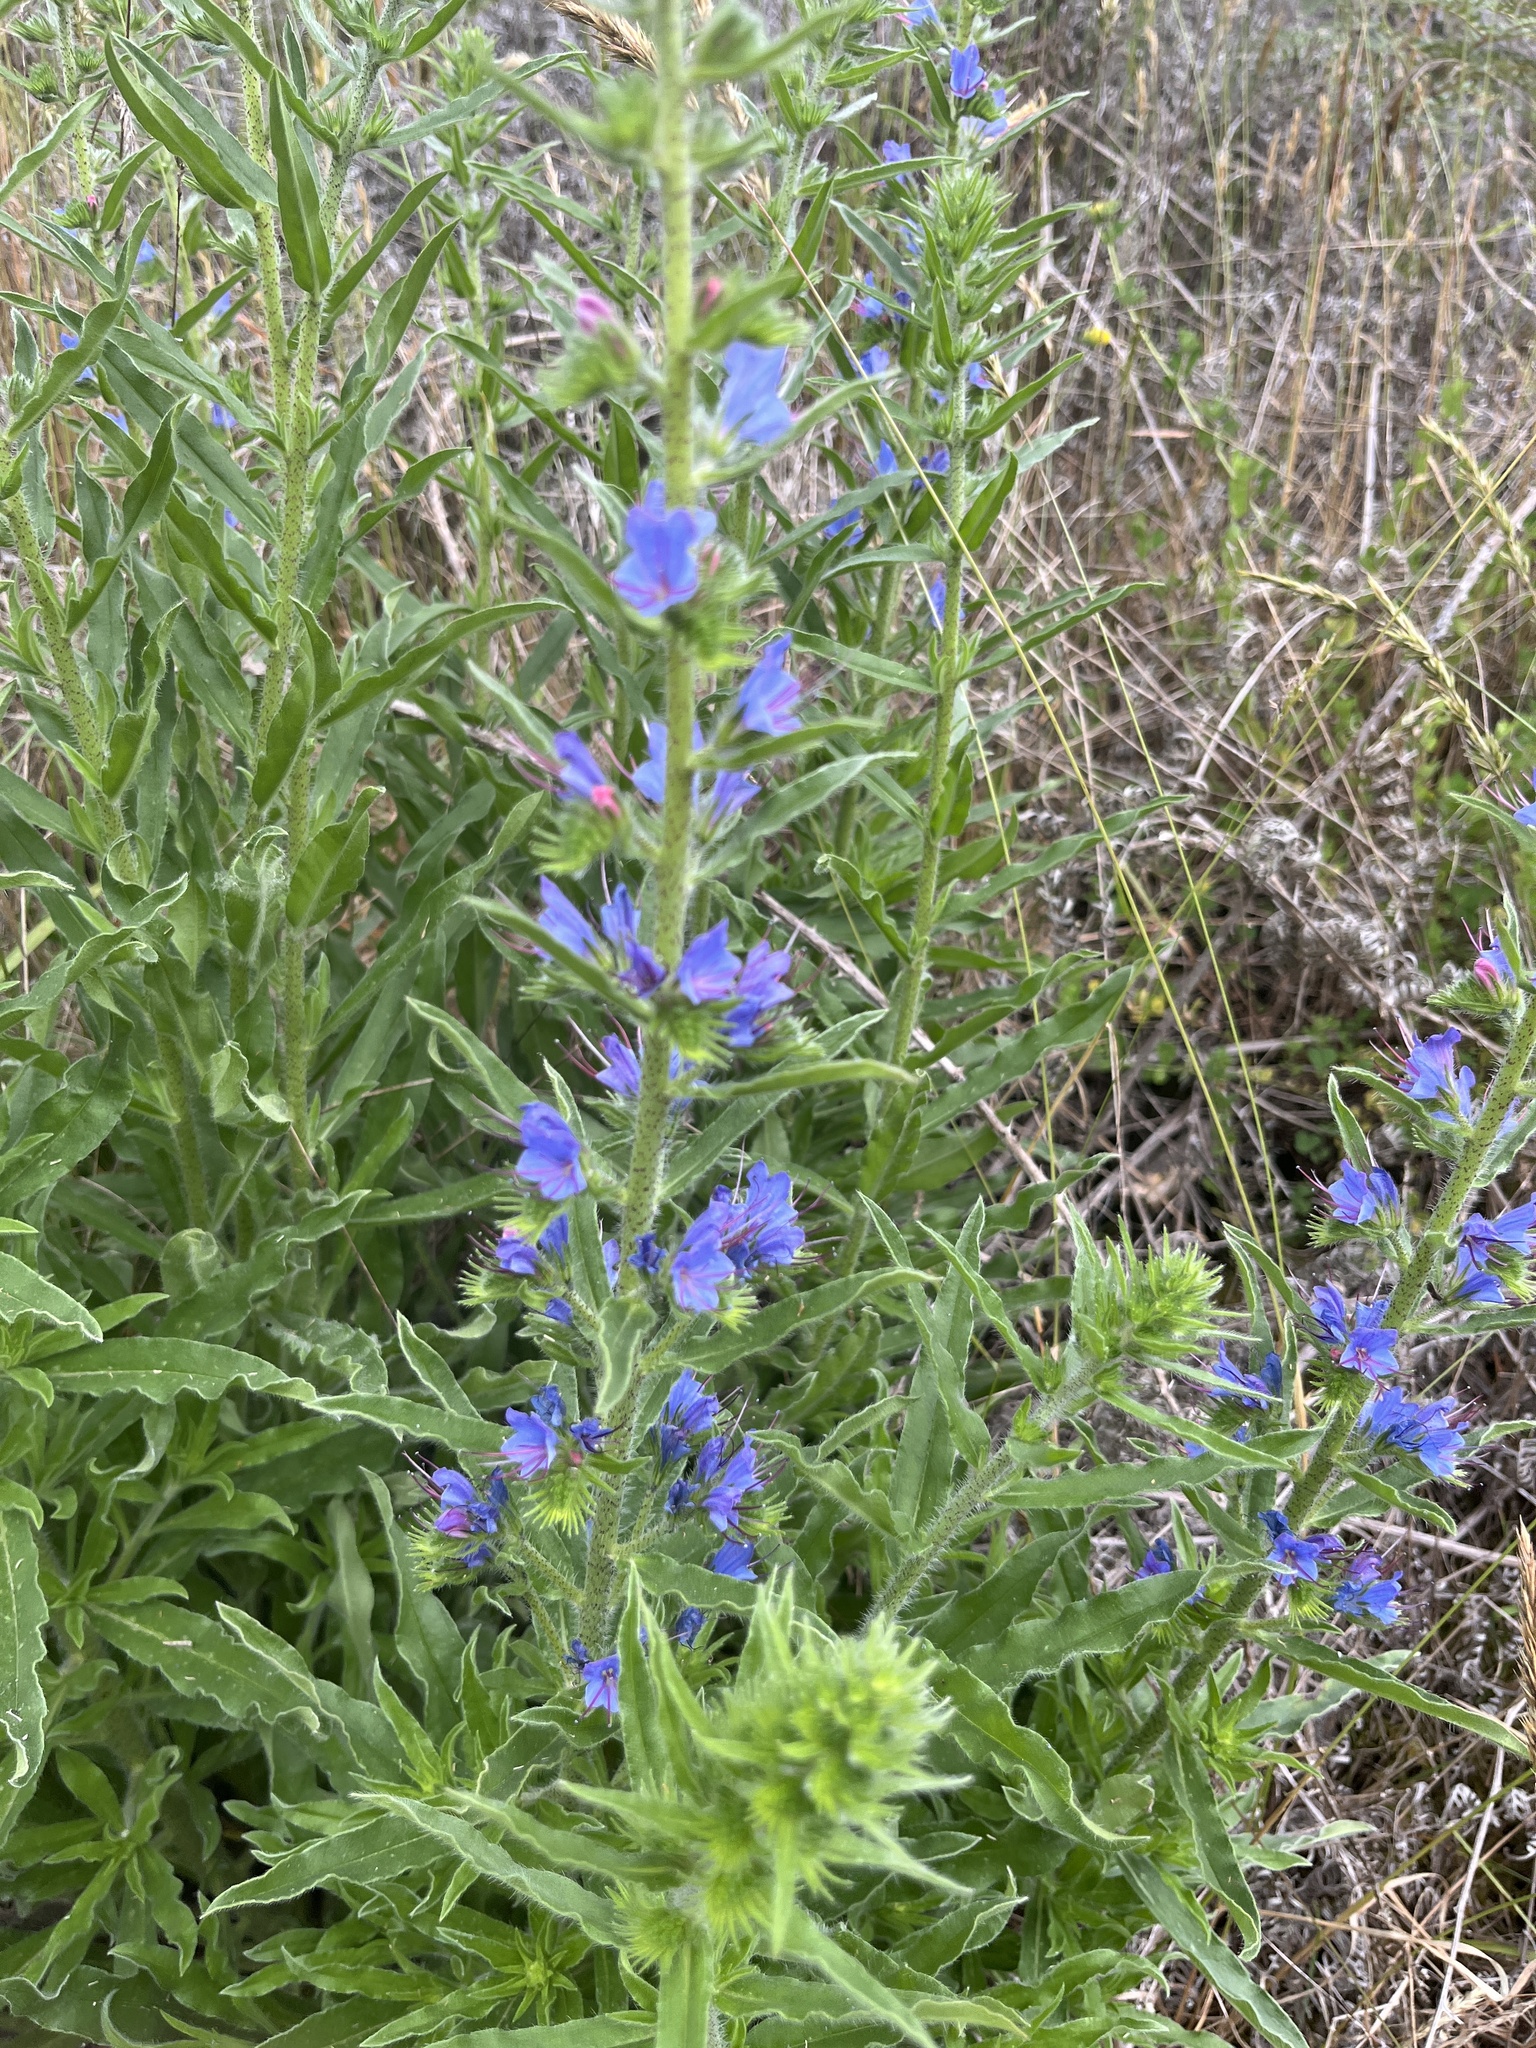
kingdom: Plantae
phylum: Tracheophyta
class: Magnoliopsida
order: Boraginales
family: Boraginaceae
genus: Echium
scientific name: Echium vulgare
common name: Common viper's bugloss
